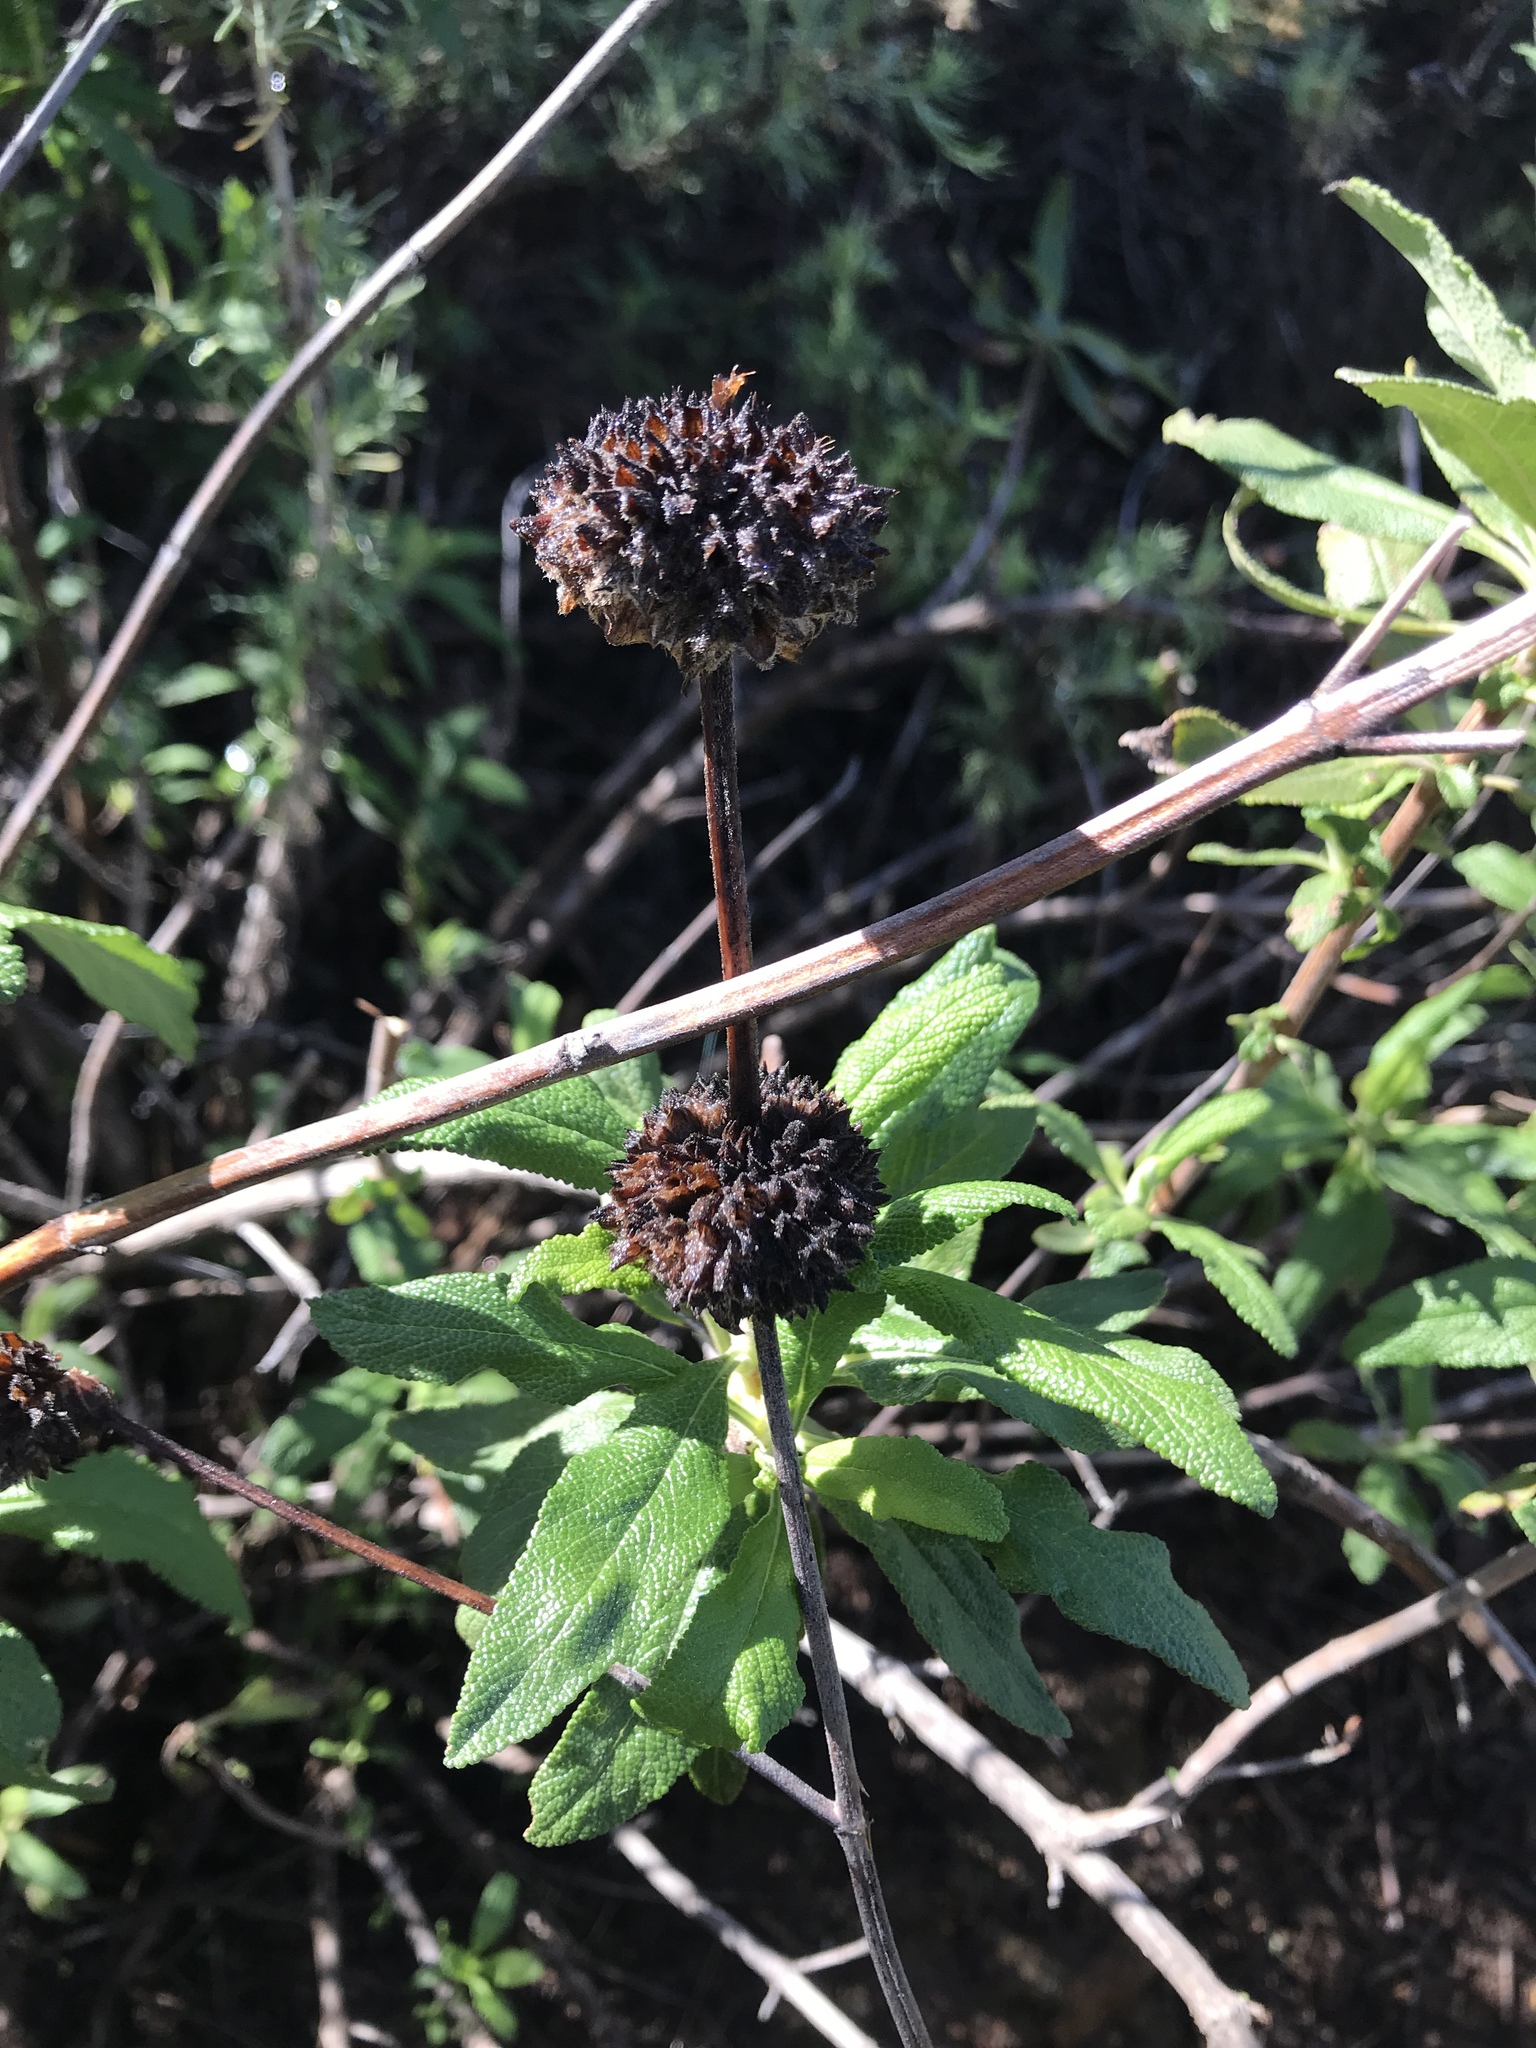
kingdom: Plantae
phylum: Tracheophyta
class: Magnoliopsida
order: Lamiales
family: Lamiaceae
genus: Salvia
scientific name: Salvia mellifera
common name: Black sage
